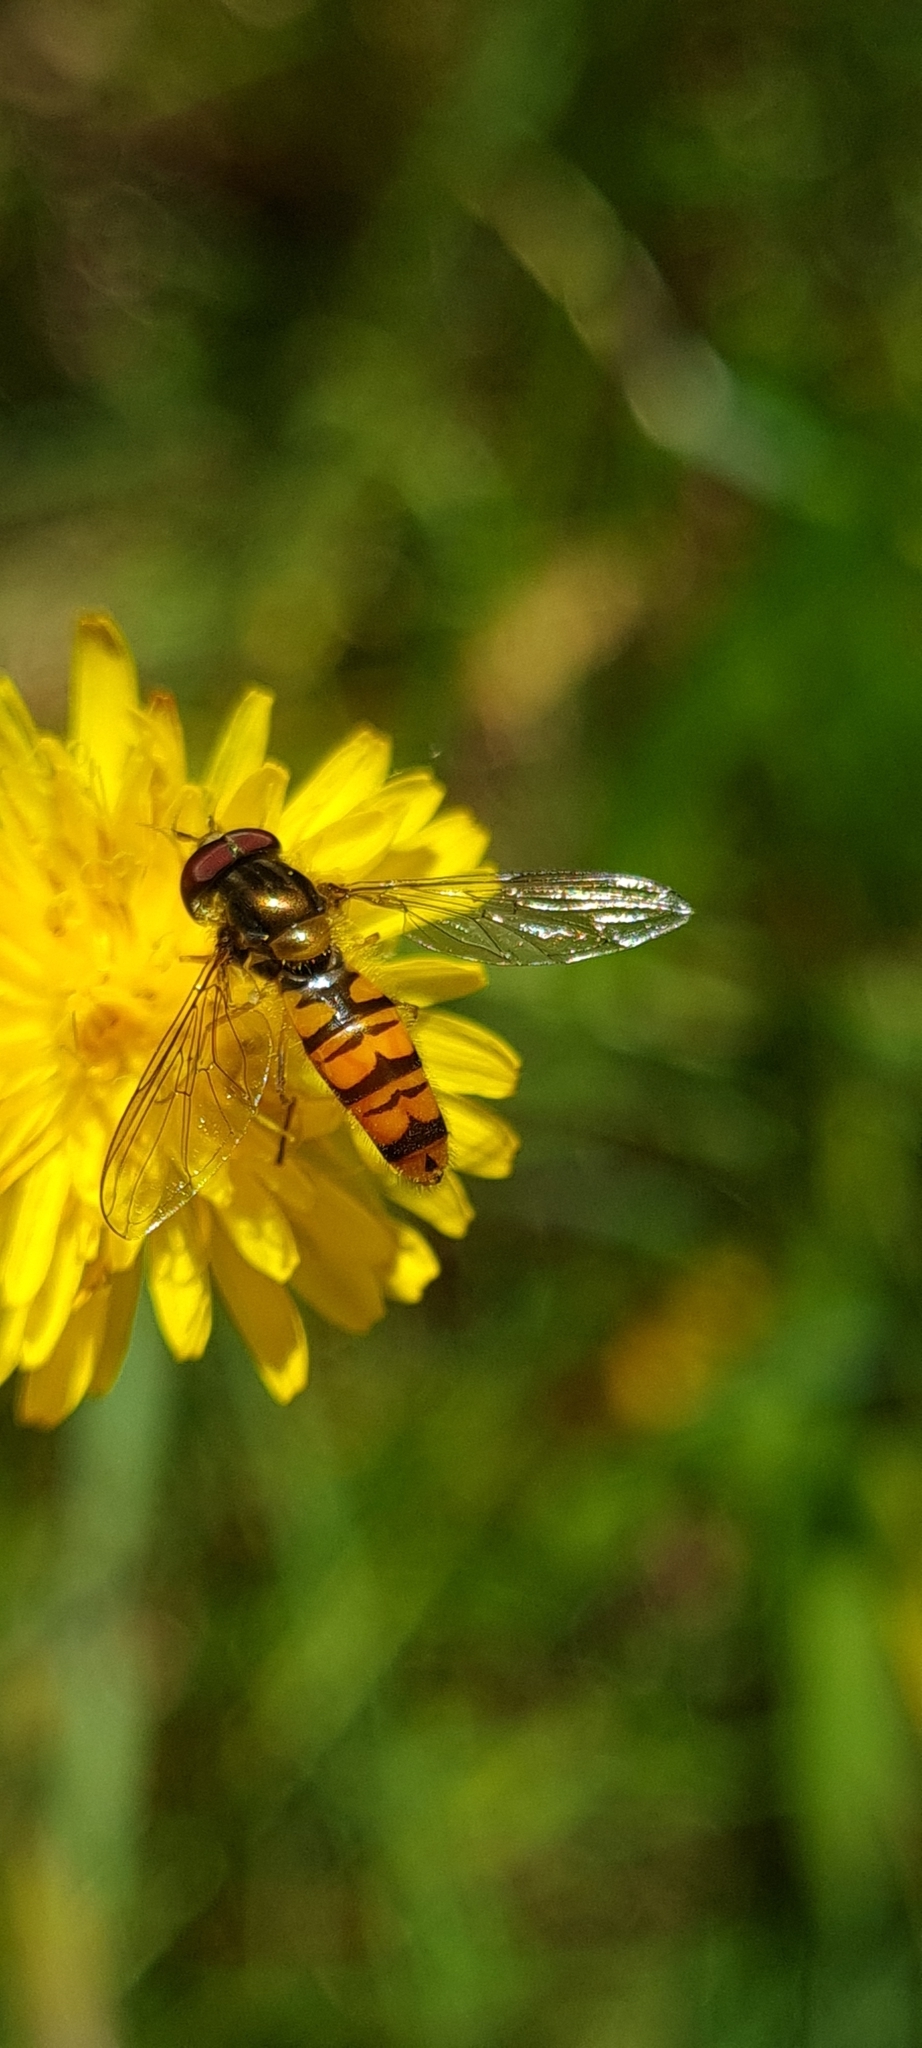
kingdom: Animalia
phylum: Arthropoda
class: Insecta
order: Diptera
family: Syrphidae
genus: Episyrphus
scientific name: Episyrphus balteatus
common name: Marmalade hoverfly
